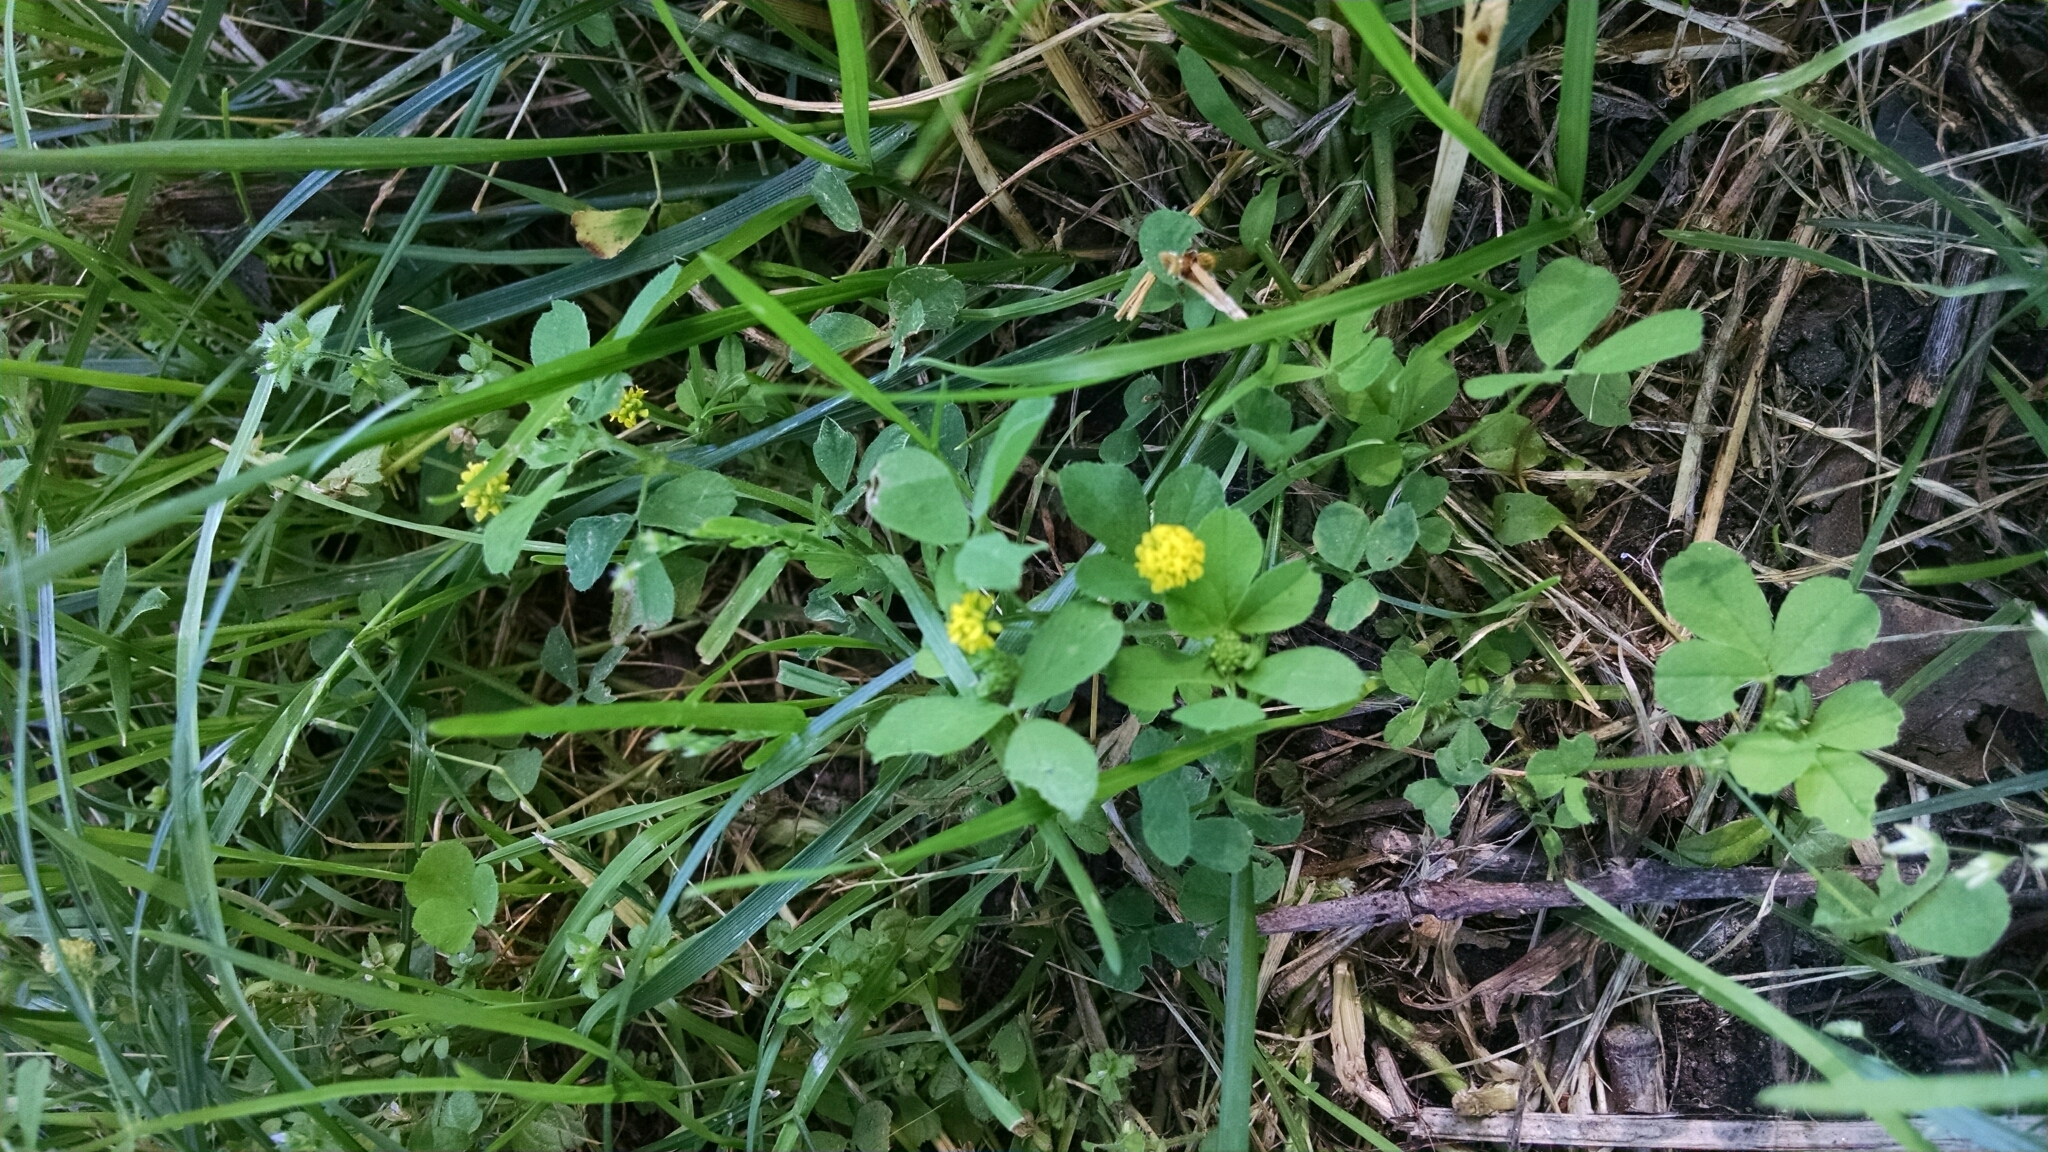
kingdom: Plantae
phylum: Tracheophyta
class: Magnoliopsida
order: Fabales
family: Fabaceae
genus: Medicago
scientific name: Medicago lupulina
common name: Black medick
